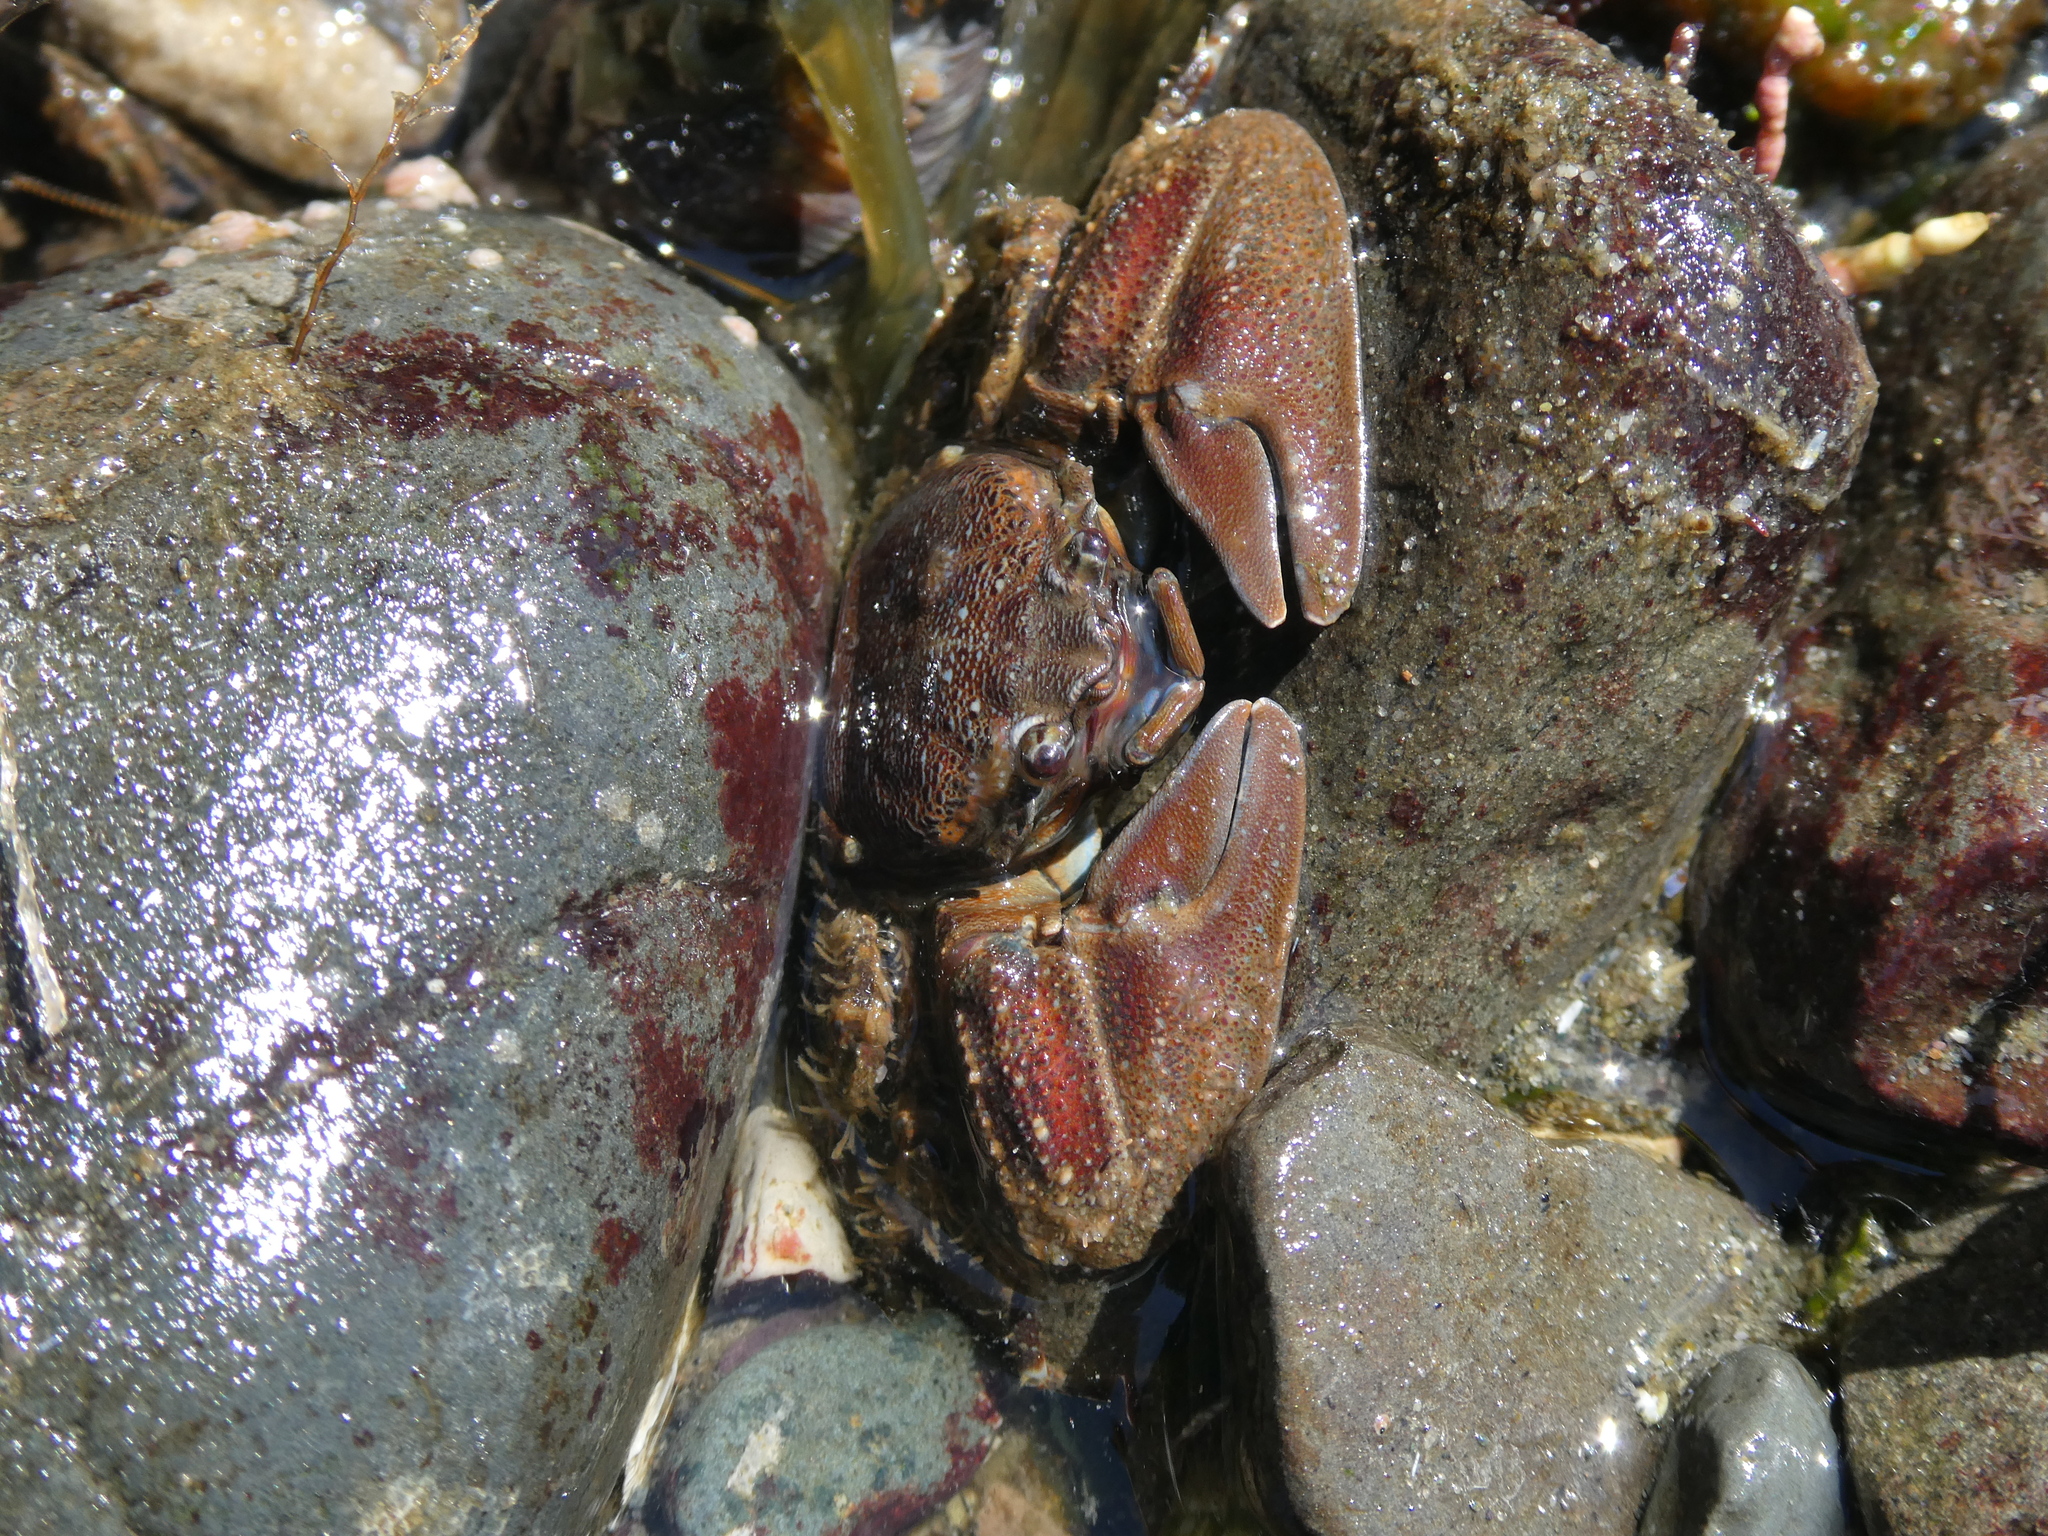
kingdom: Animalia
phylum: Arthropoda
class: Malacostraca
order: Decapoda
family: Porcellanidae
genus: Petrolisthes
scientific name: Petrolisthes eriomerus
